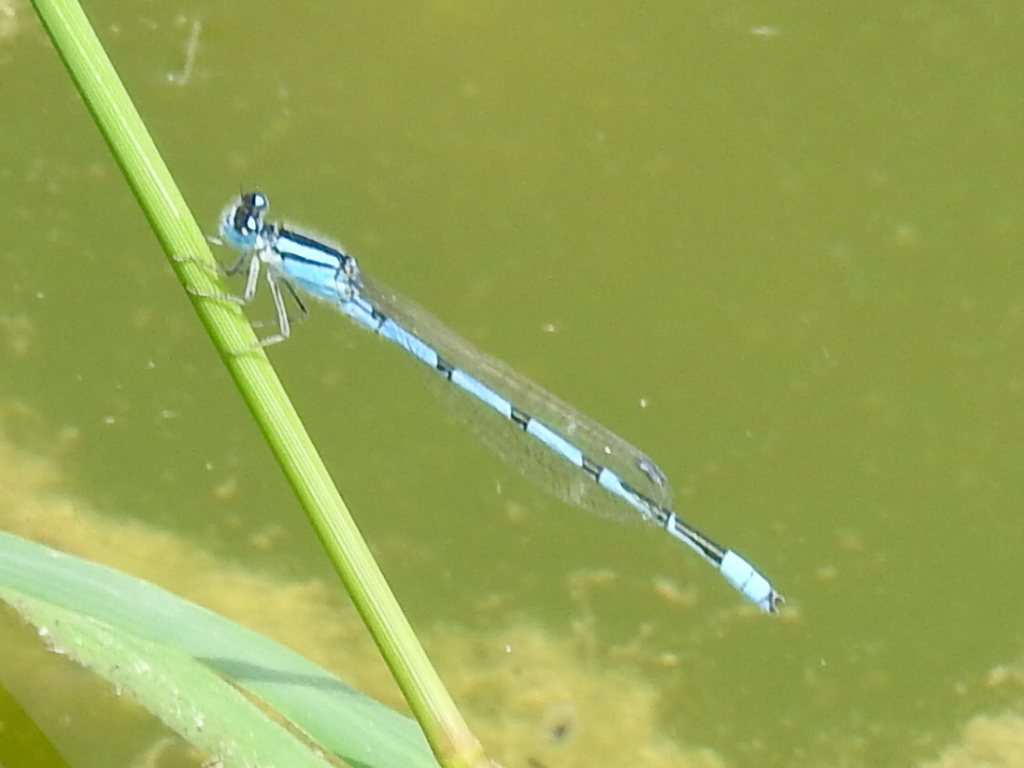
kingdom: Animalia
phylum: Arthropoda
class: Insecta
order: Odonata
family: Coenagrionidae
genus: Enallagma
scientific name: Enallagma civile
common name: Damselfly
